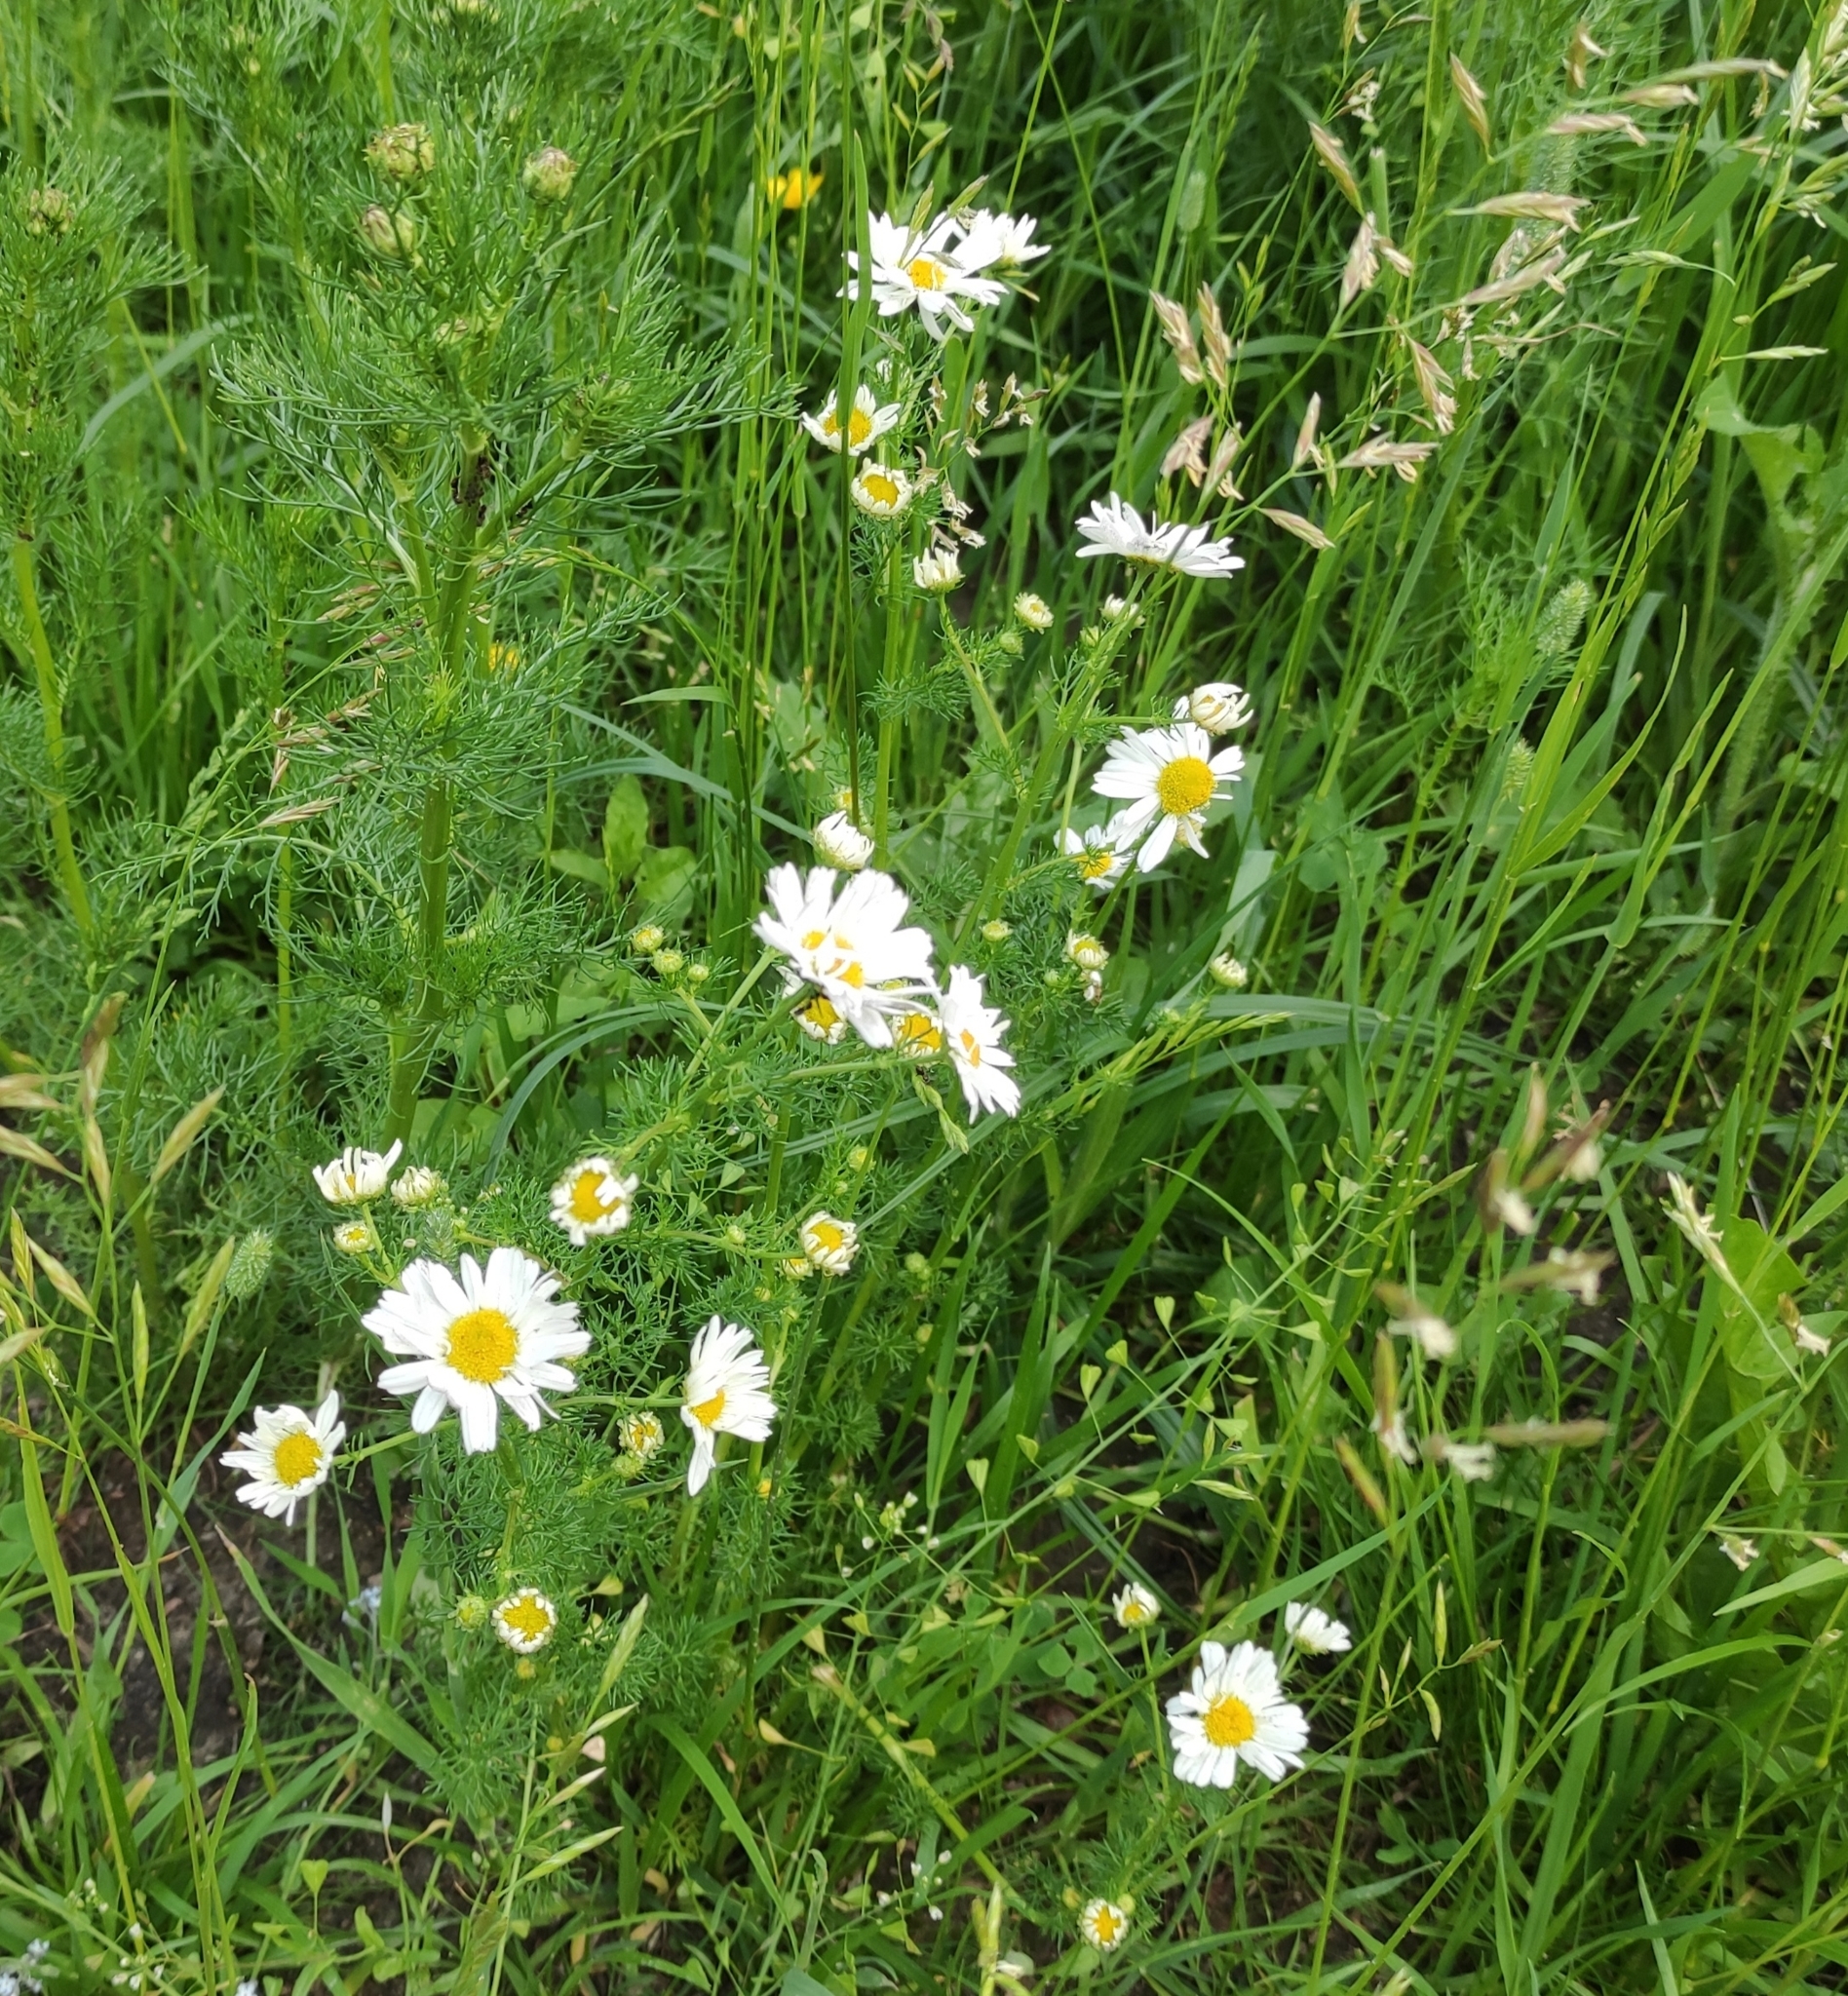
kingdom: Plantae
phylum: Tracheophyta
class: Magnoliopsida
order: Asterales
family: Asteraceae
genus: Tripleurospermum
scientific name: Tripleurospermum inodorum
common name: Scentless mayweed
